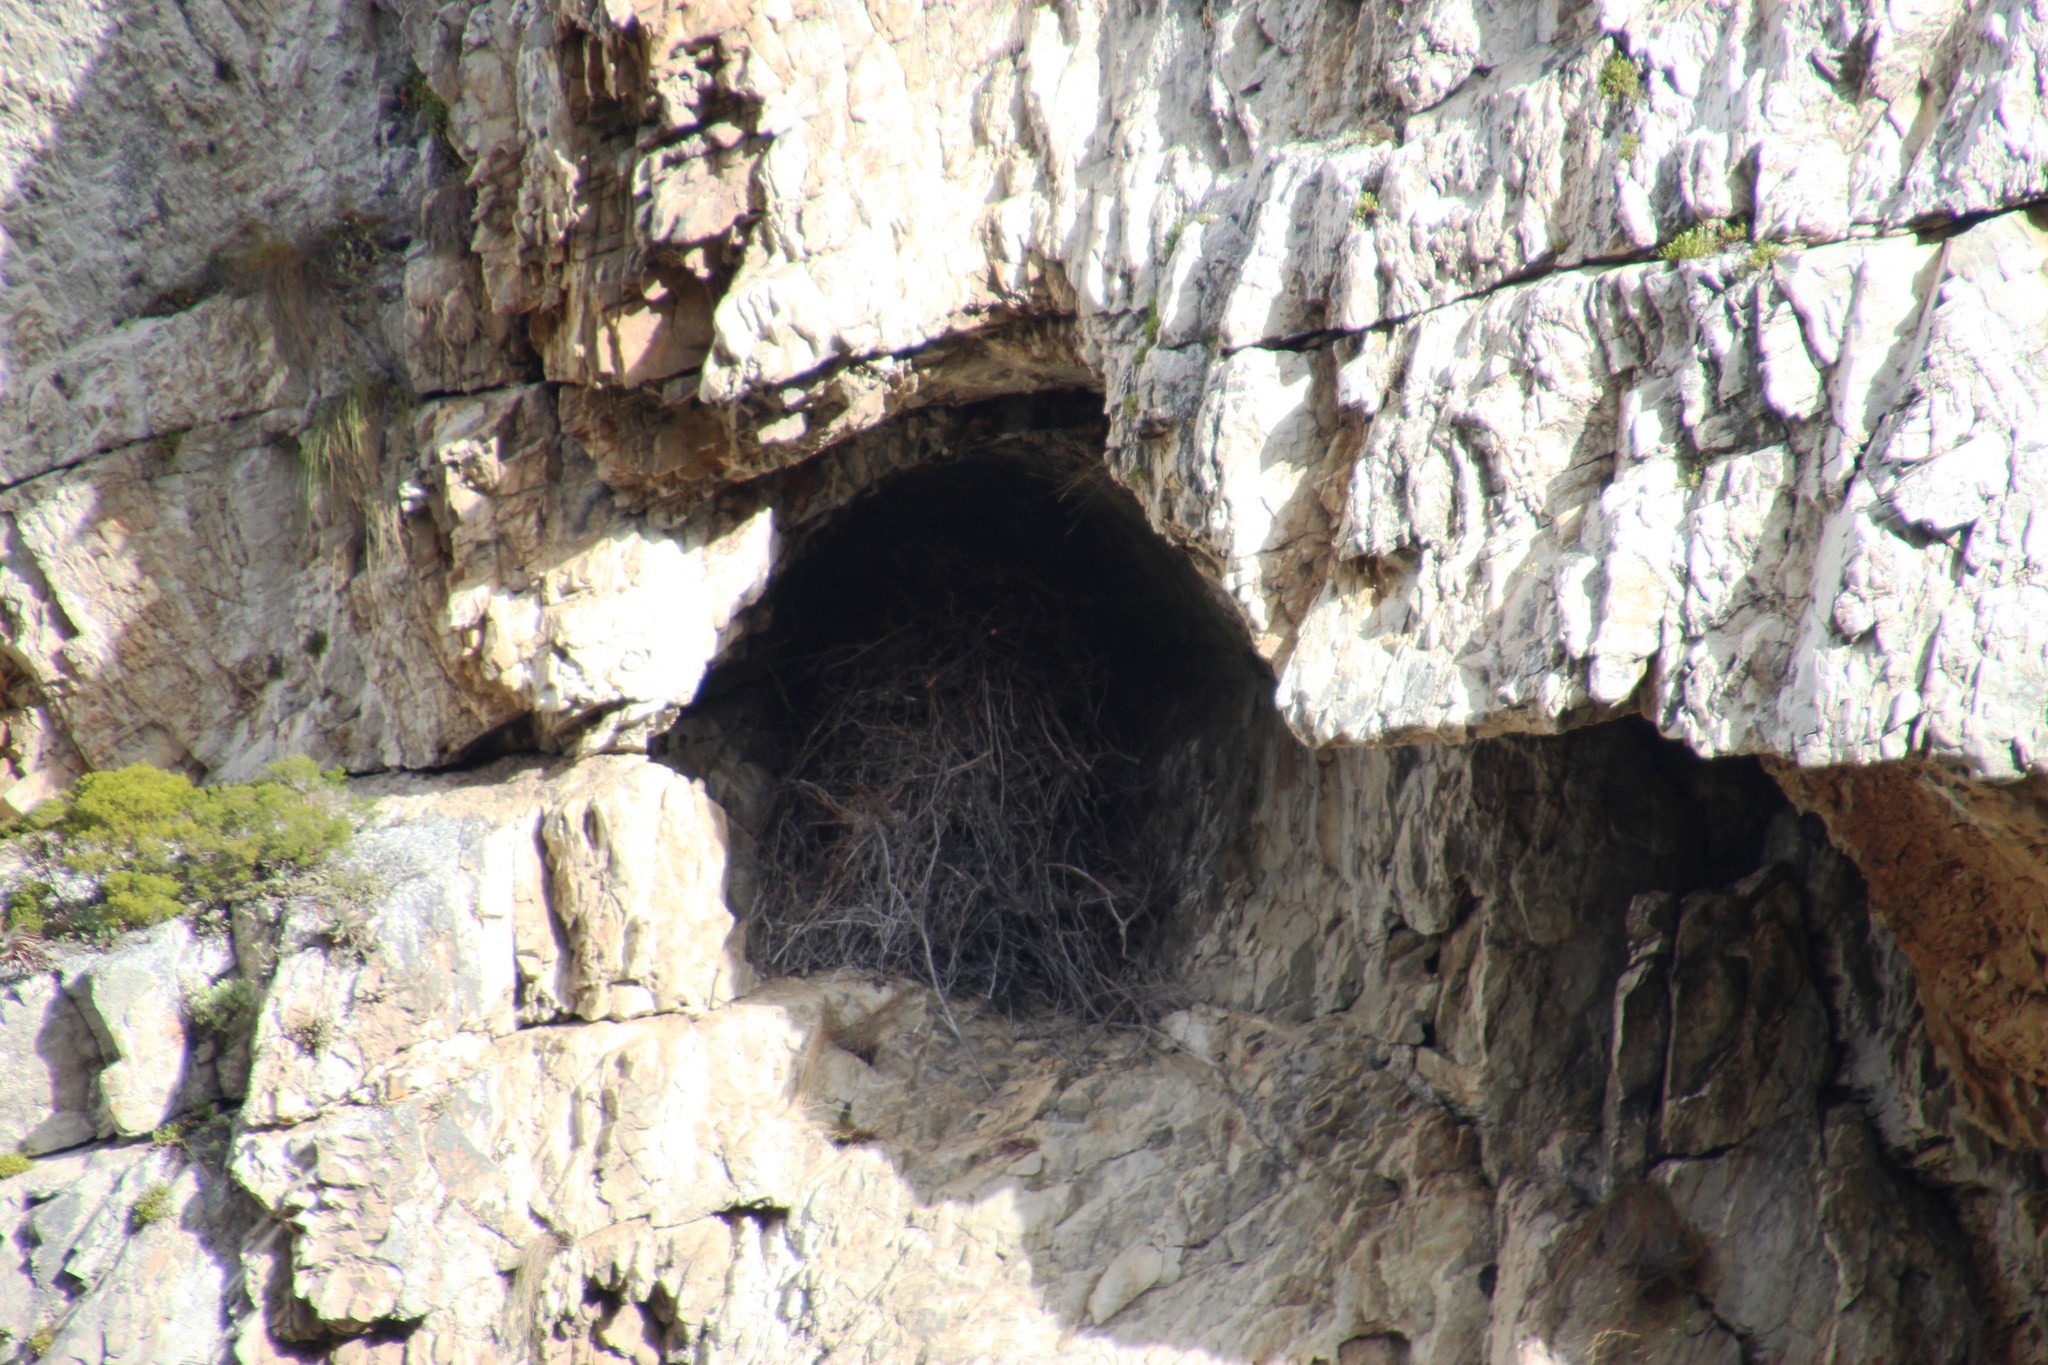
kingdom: Animalia
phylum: Chordata
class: Aves
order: Accipitriformes
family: Accipitridae
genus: Aquila
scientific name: Aquila verreauxii
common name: Verreaux's eagle
